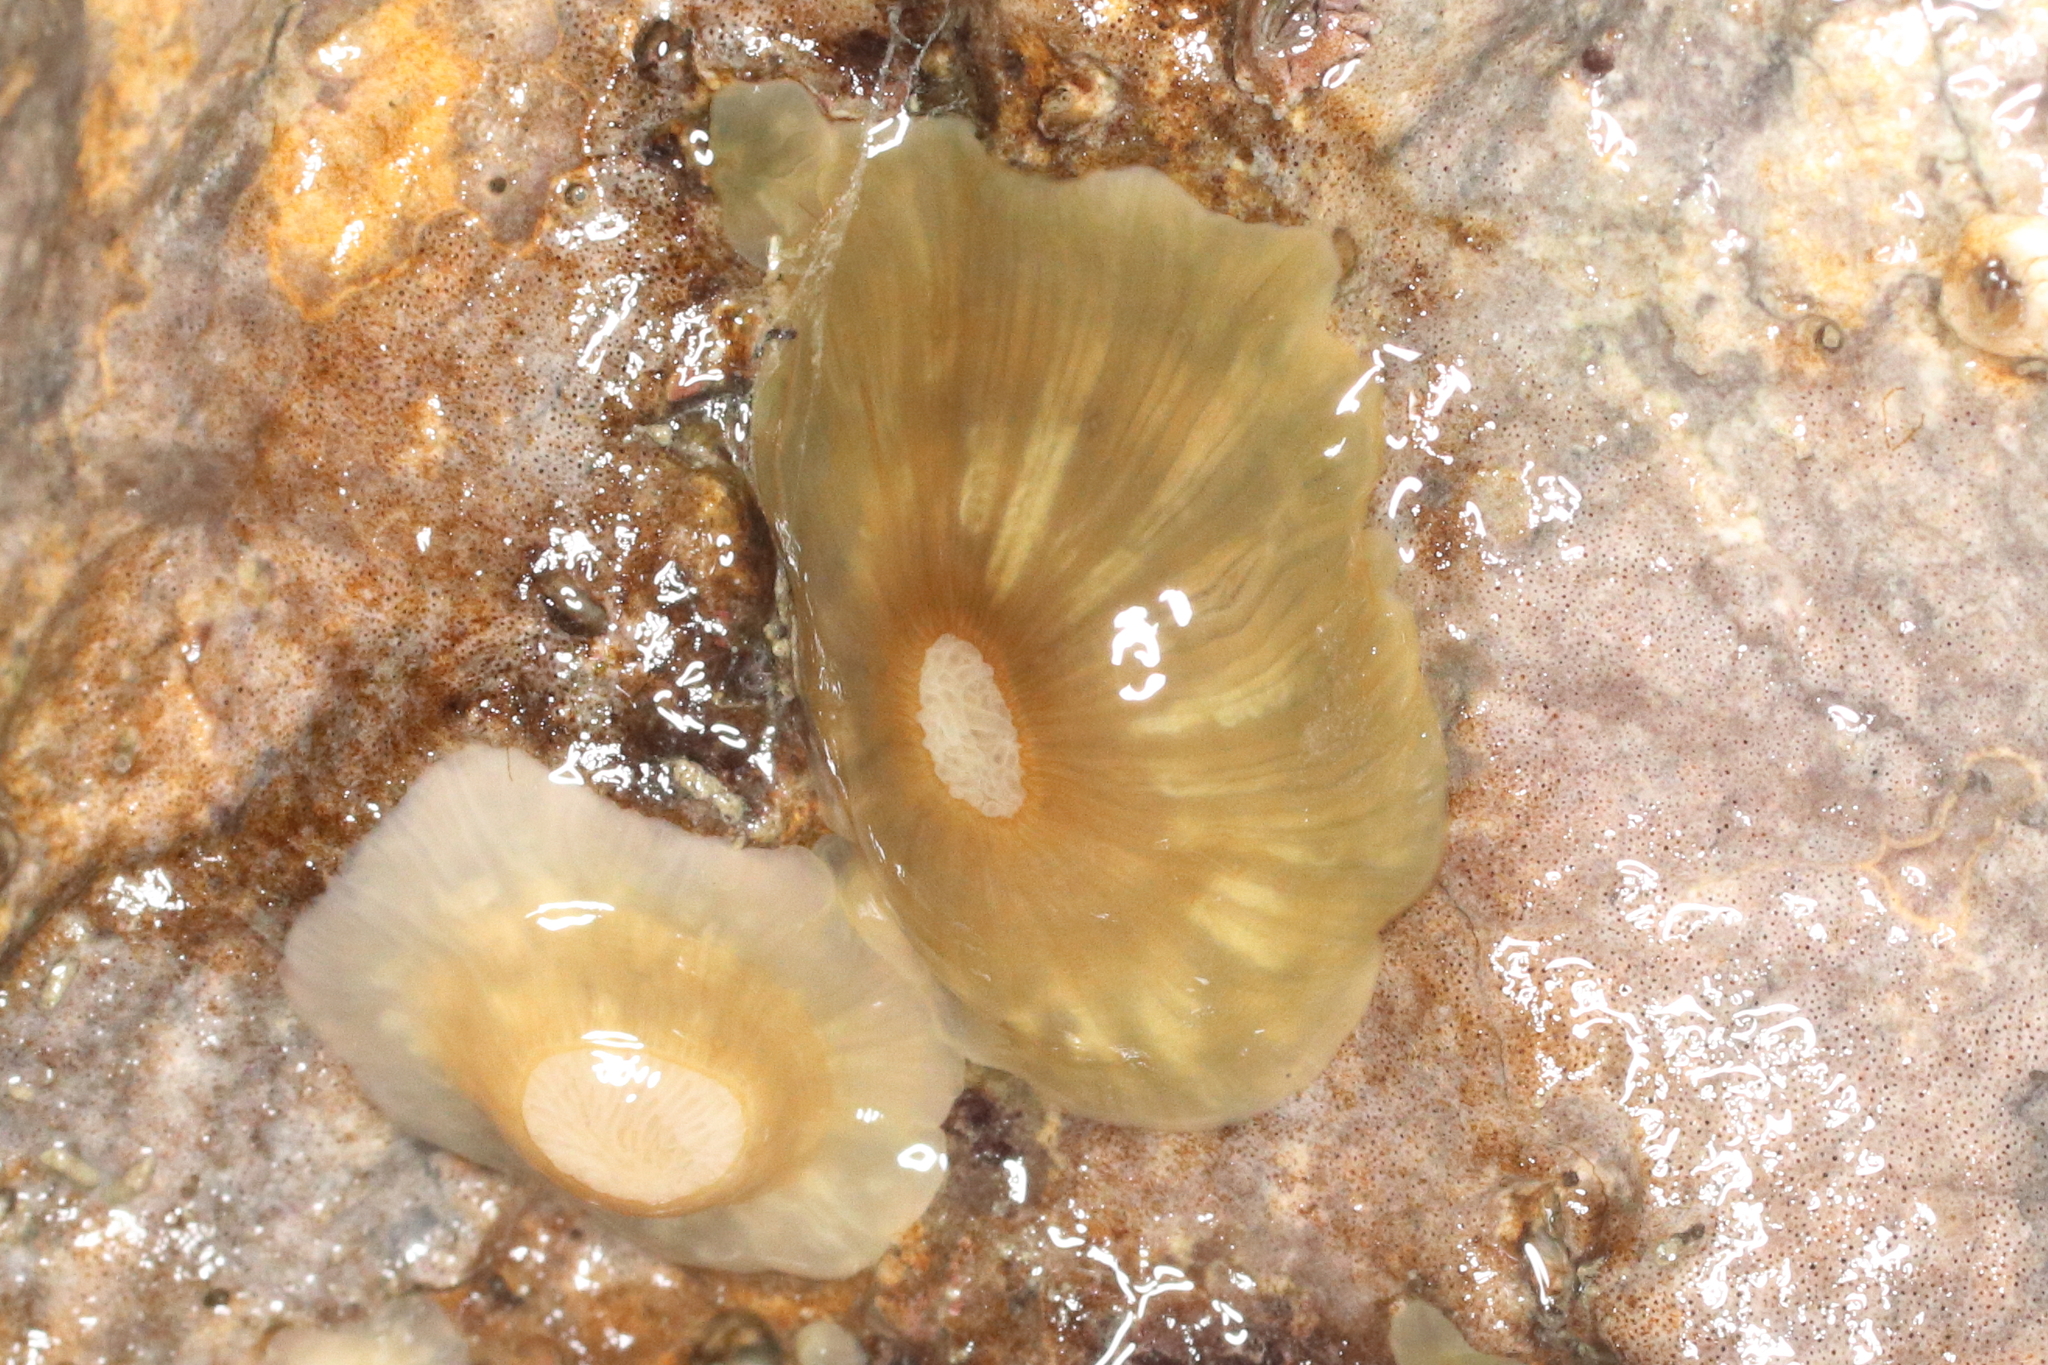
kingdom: Animalia
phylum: Cnidaria
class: Anthozoa
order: Actiniaria
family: Metridiidae
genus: Metridium
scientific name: Metridium senile
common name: Clonal plumose anemone
